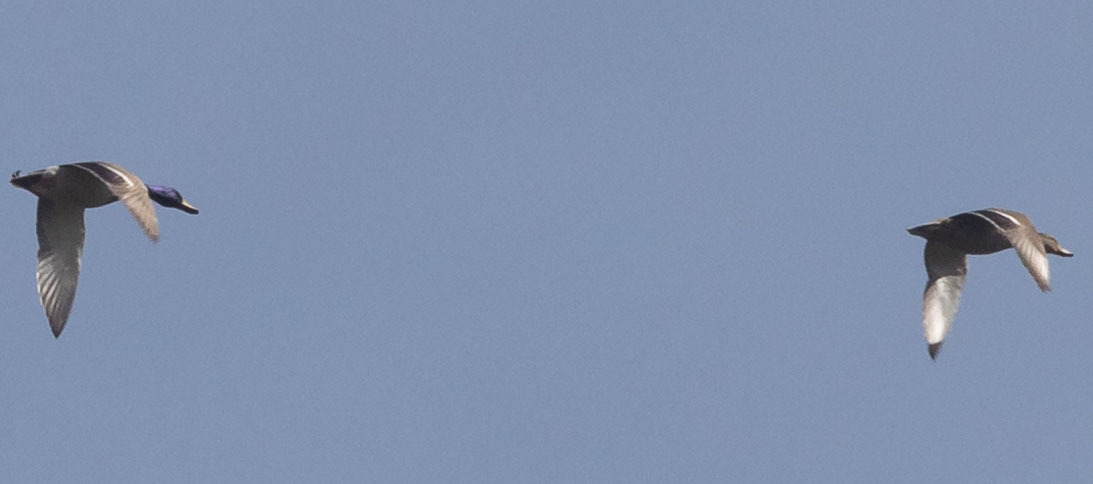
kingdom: Animalia
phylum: Chordata
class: Aves
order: Anseriformes
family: Anatidae
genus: Anas
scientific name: Anas platyrhynchos
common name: Mallard
